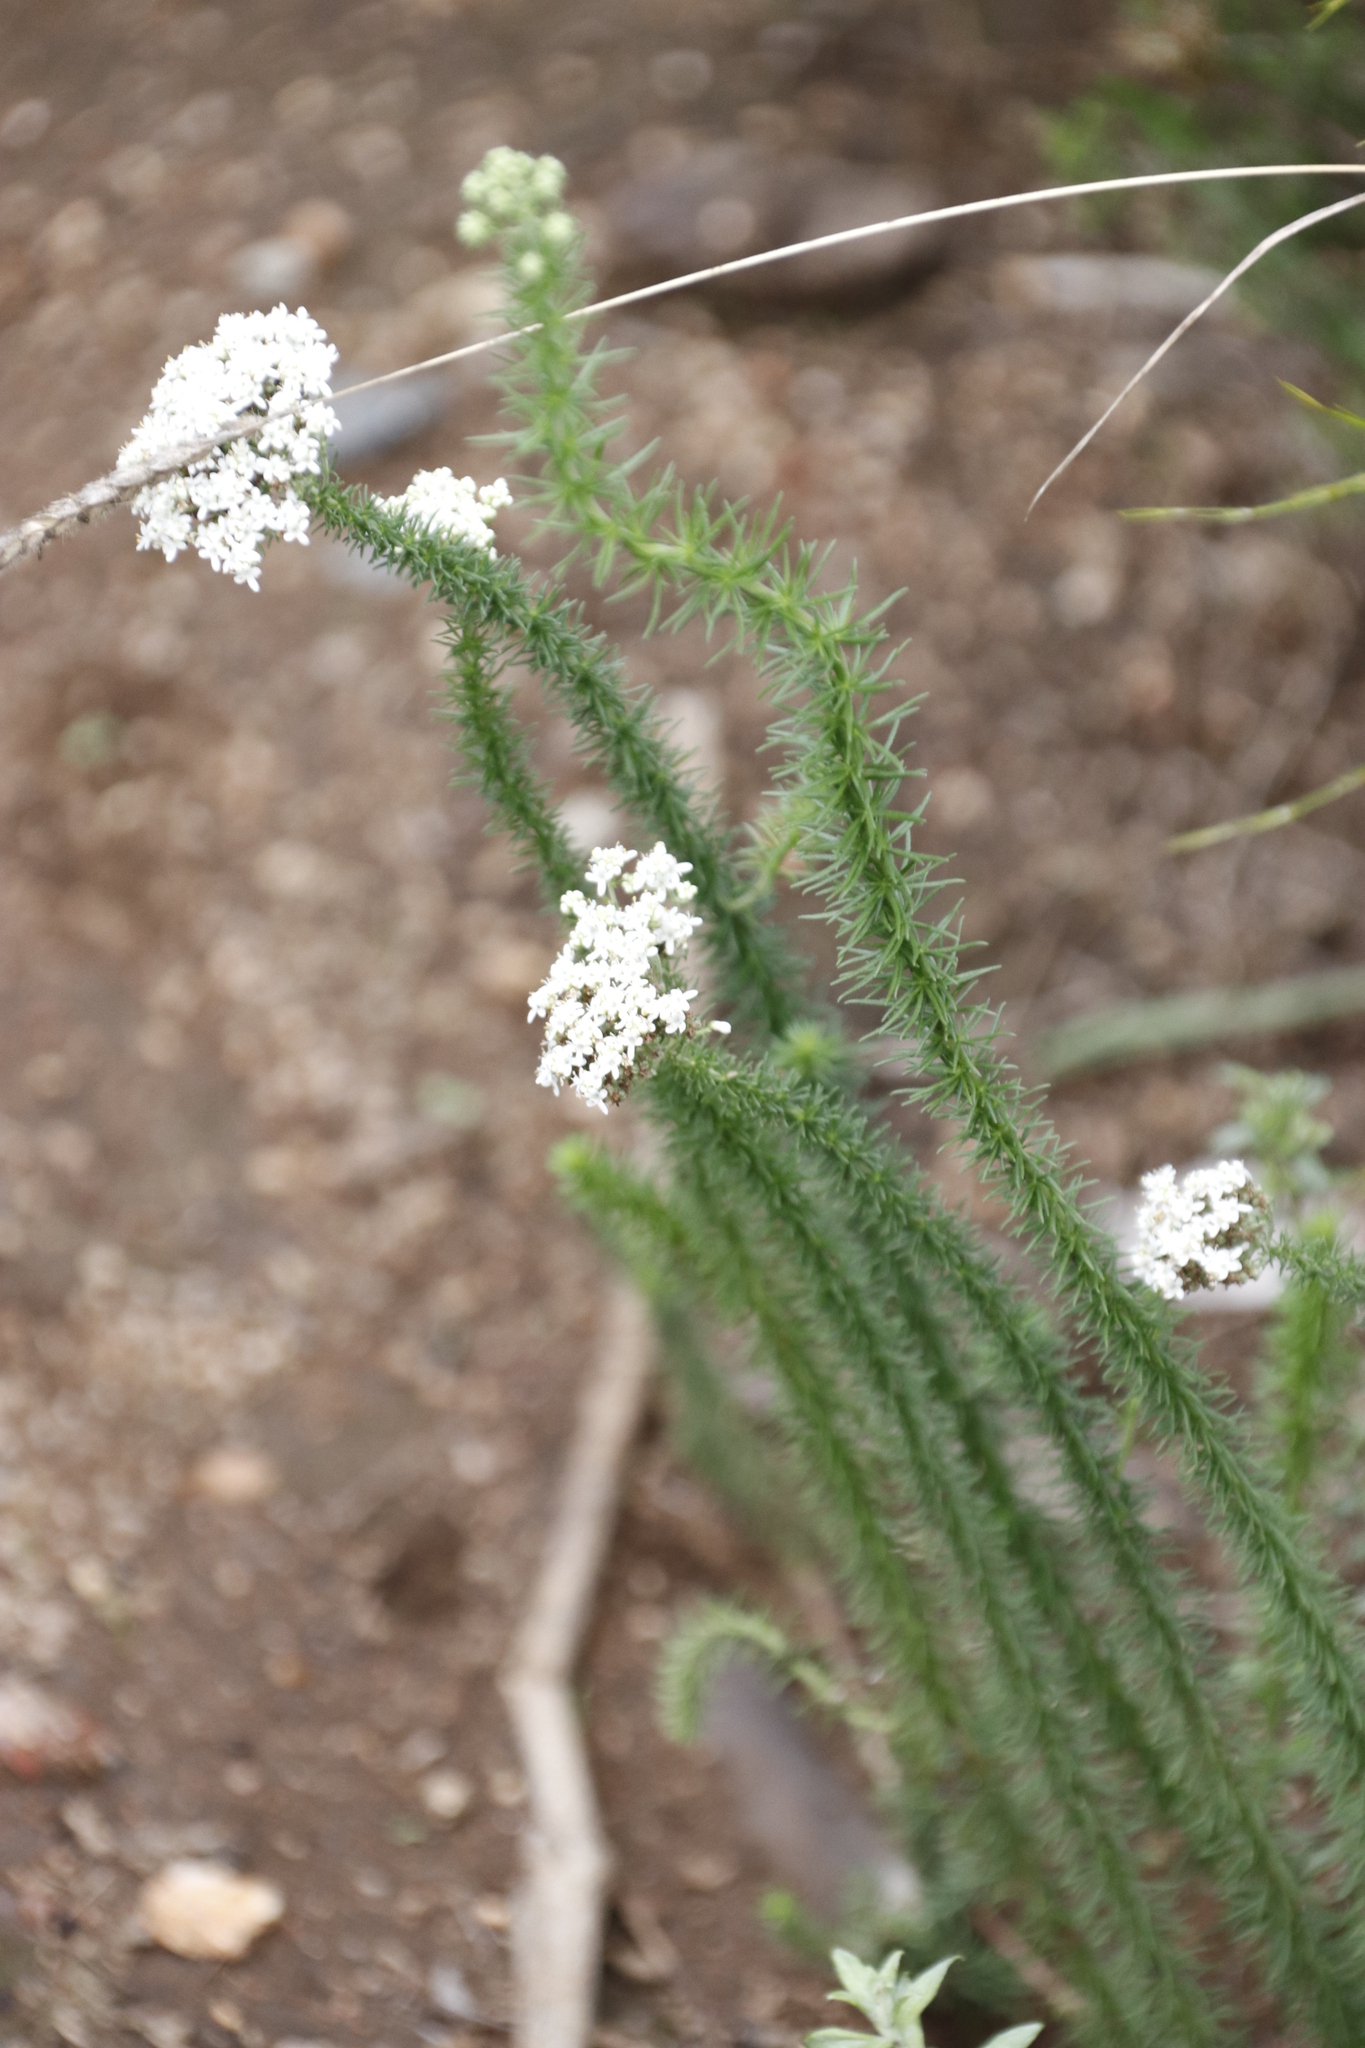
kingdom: Plantae
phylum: Tracheophyta
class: Magnoliopsida
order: Lamiales
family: Scrophulariaceae
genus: Selago
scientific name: Selago corymbosa
